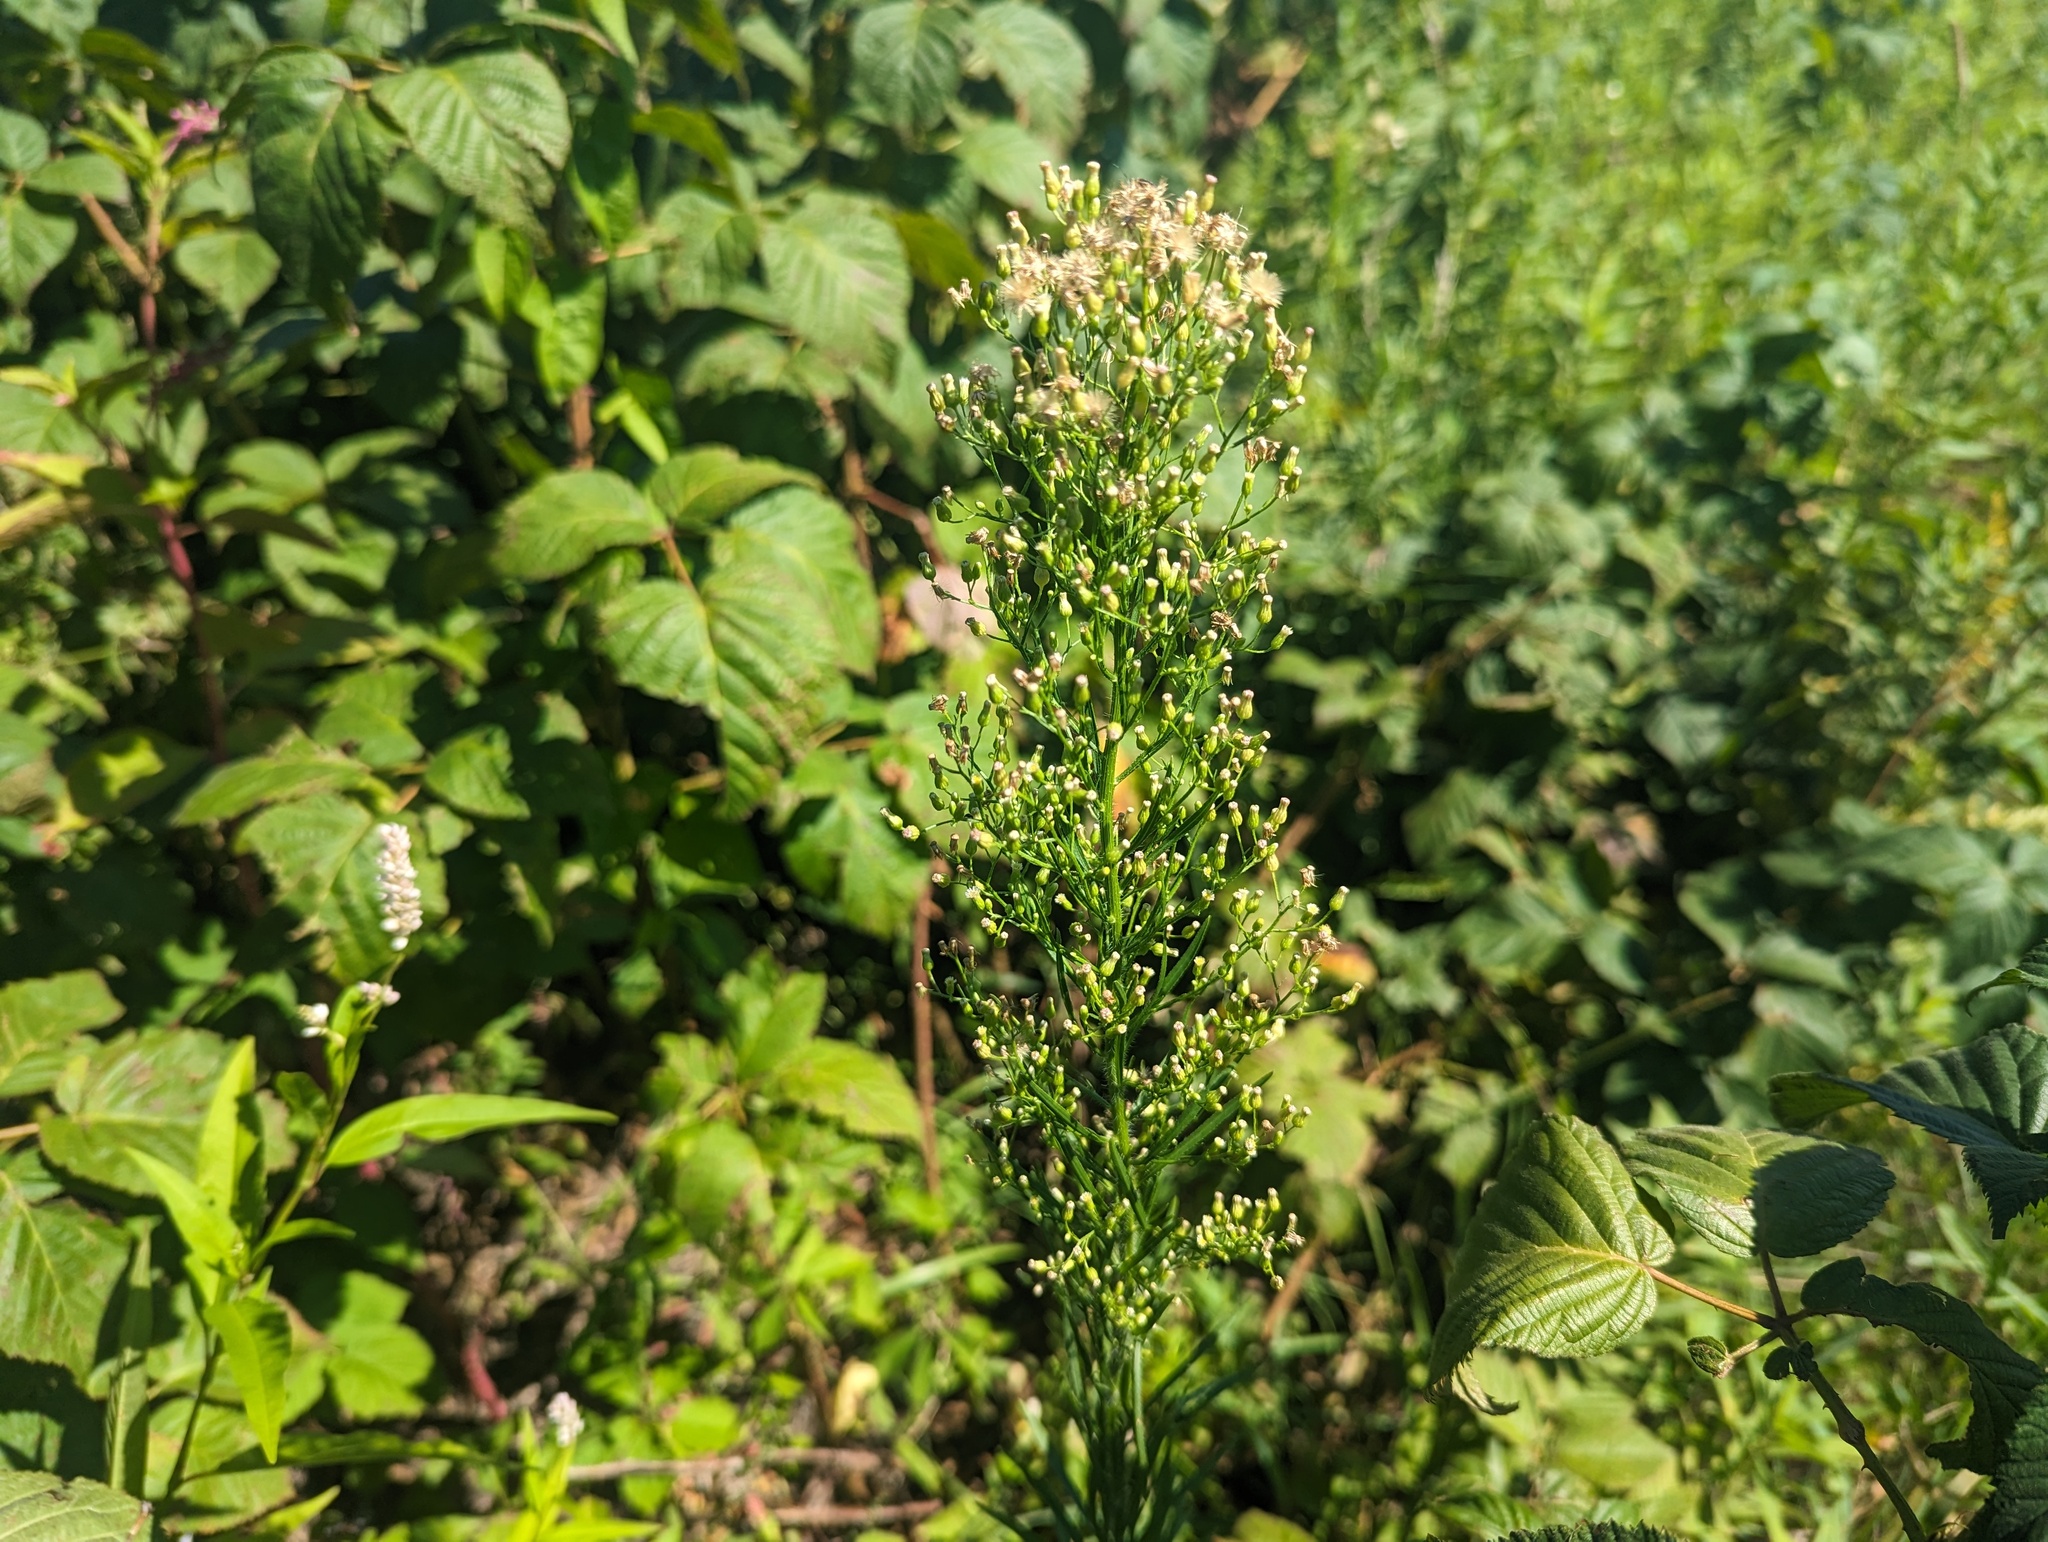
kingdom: Plantae
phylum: Tracheophyta
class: Magnoliopsida
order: Asterales
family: Asteraceae
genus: Erigeron
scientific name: Erigeron canadensis
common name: Canadian fleabane
